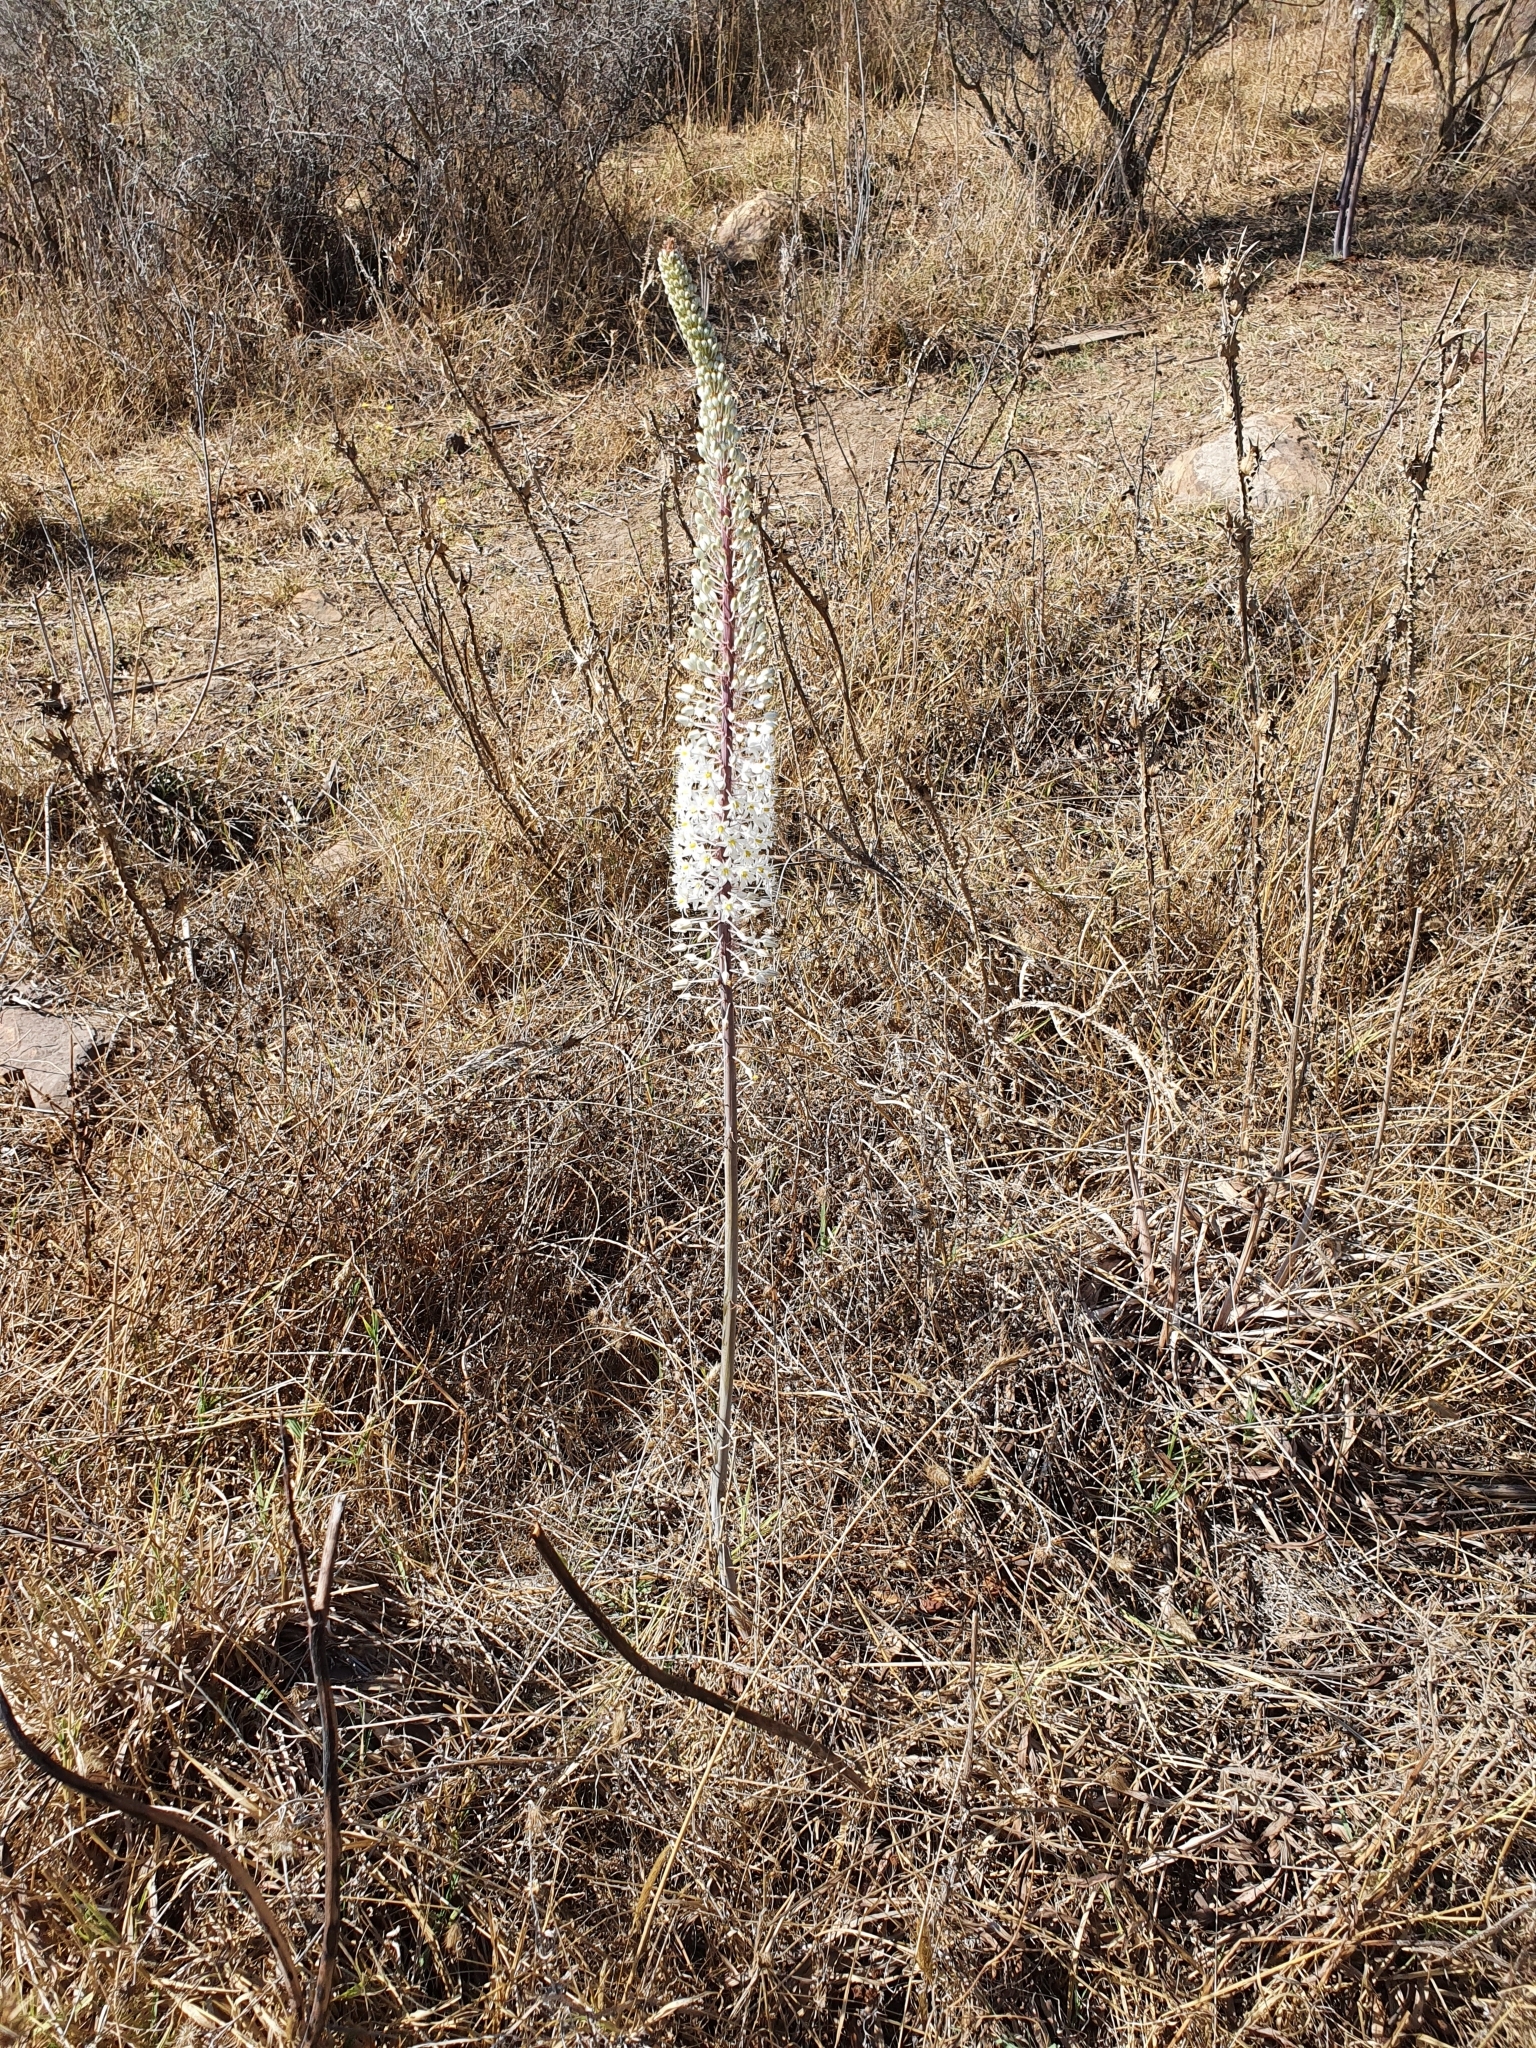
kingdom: Plantae
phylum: Tracheophyta
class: Liliopsida
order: Asparagales
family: Asparagaceae
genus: Drimia
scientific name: Drimia numidica
